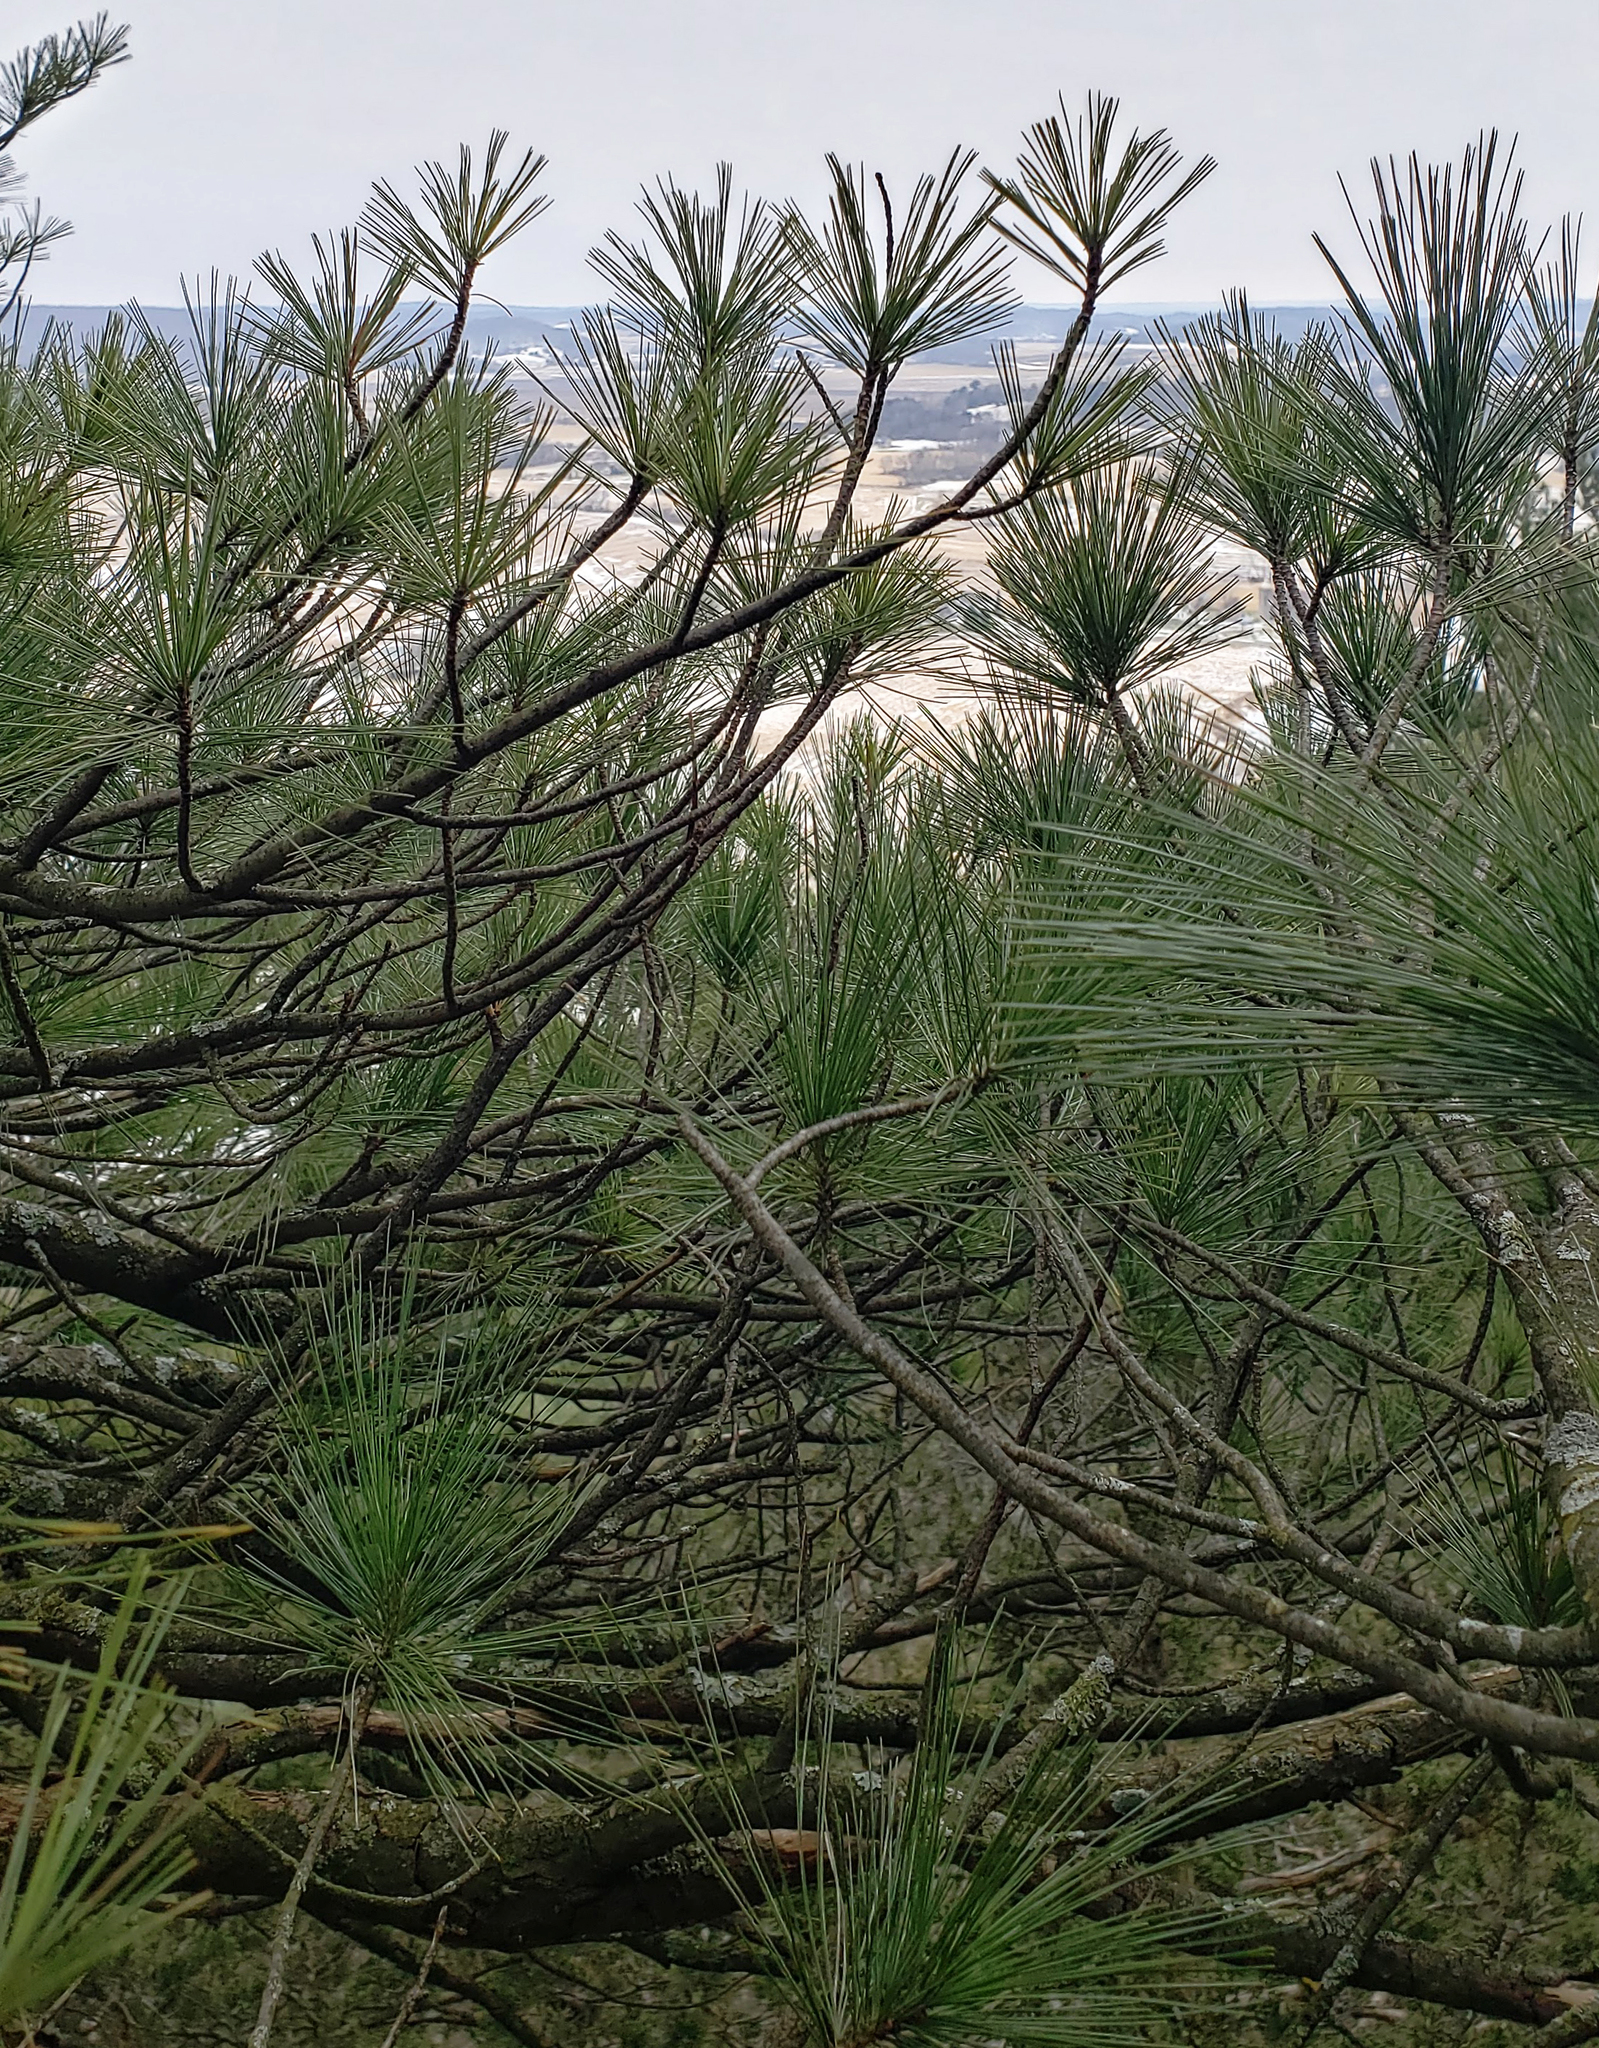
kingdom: Plantae
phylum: Tracheophyta
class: Pinopsida
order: Pinales
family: Pinaceae
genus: Pinus
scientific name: Pinus strobus
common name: Weymouth pine
